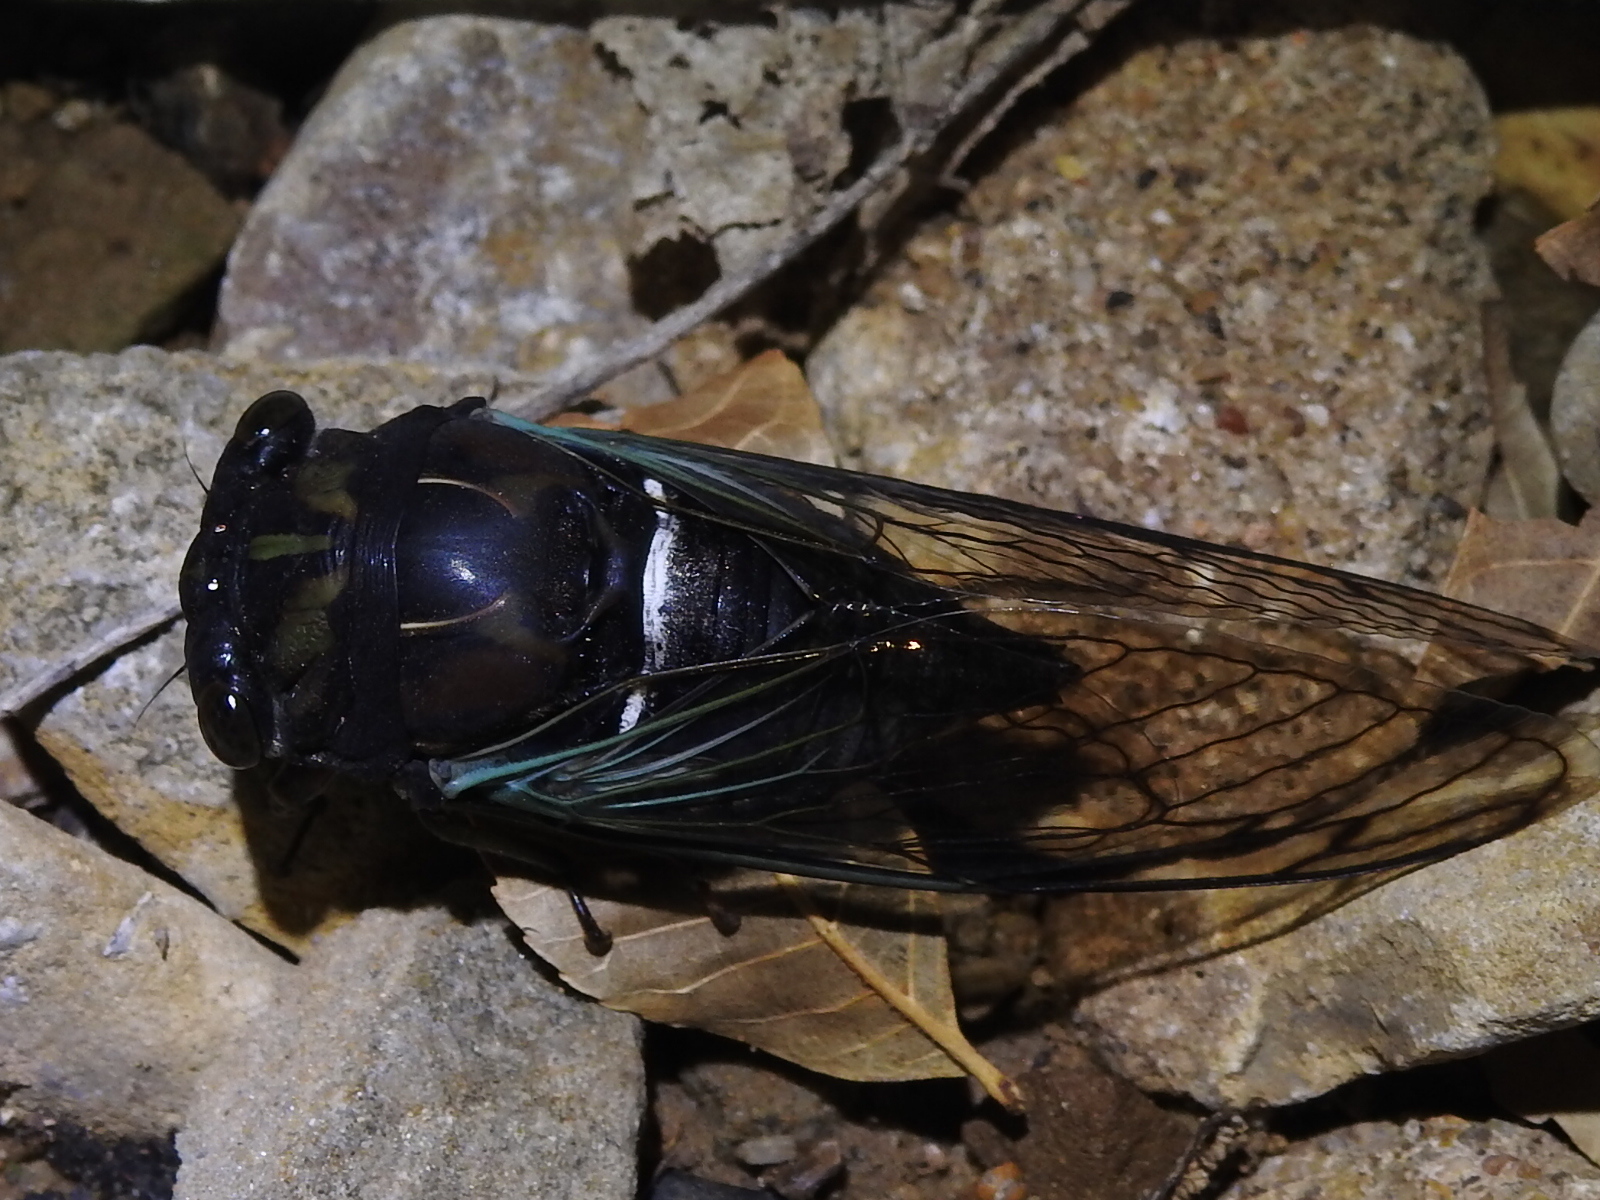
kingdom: Animalia
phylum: Arthropoda
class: Insecta
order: Hemiptera
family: Cicadidae
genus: Neotibicen
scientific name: Neotibicen lyricen
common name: Lyric cicada
